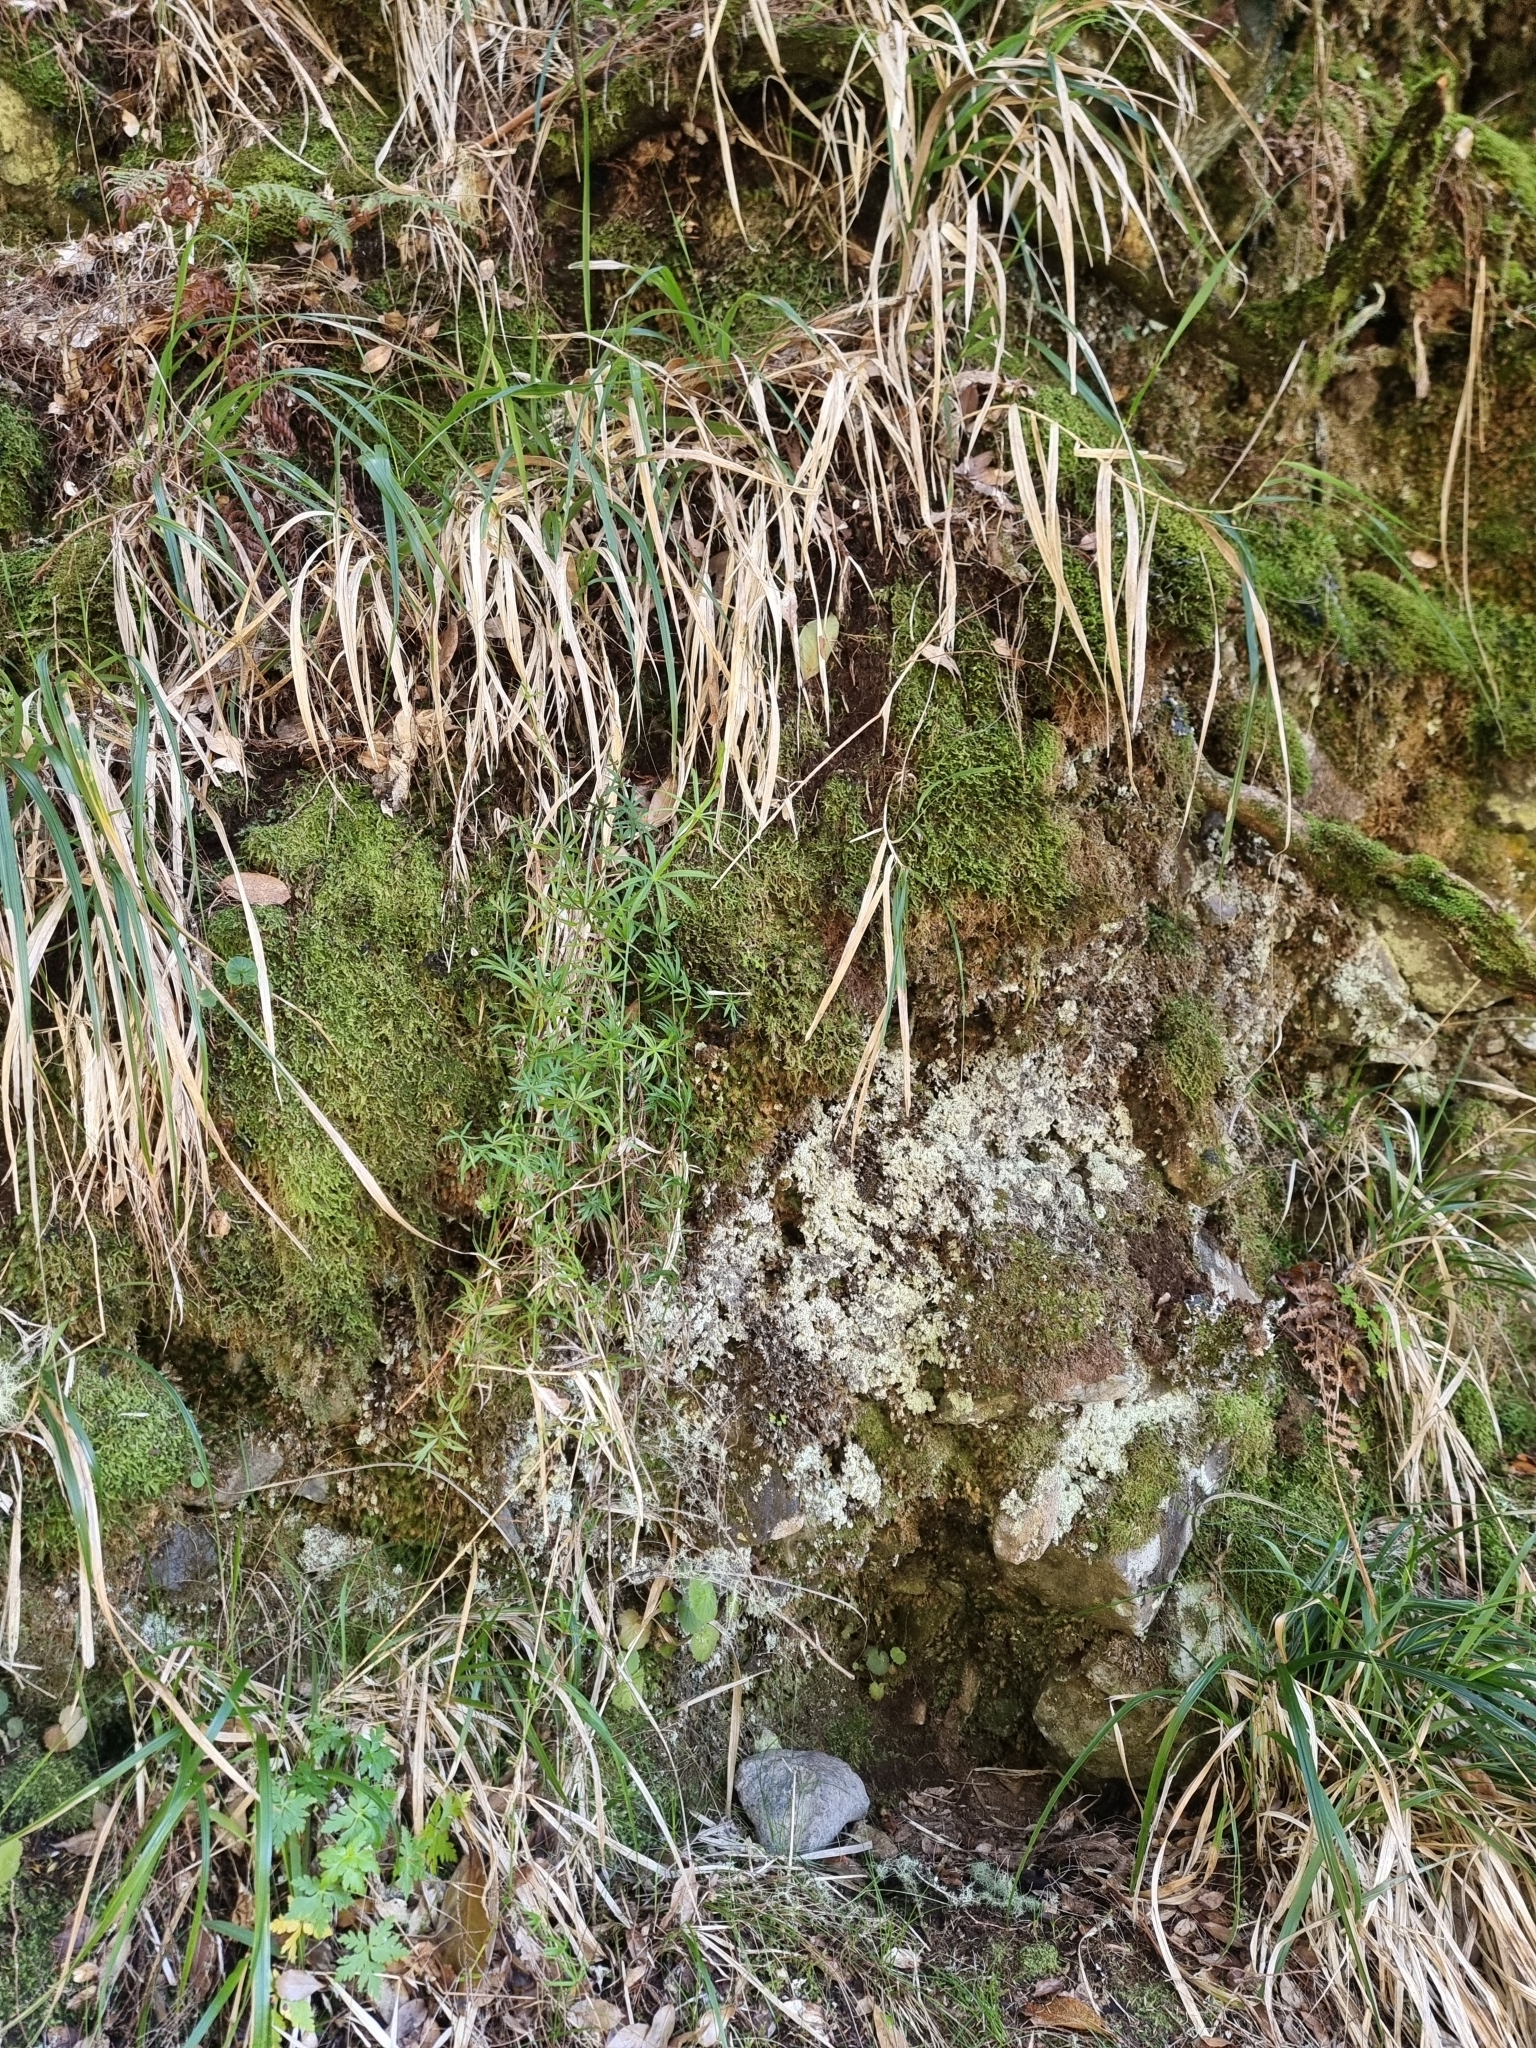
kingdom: Plantae
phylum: Tracheophyta
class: Magnoliopsida
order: Gentianales
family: Rubiaceae
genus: Rubia
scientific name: Rubia occidens
